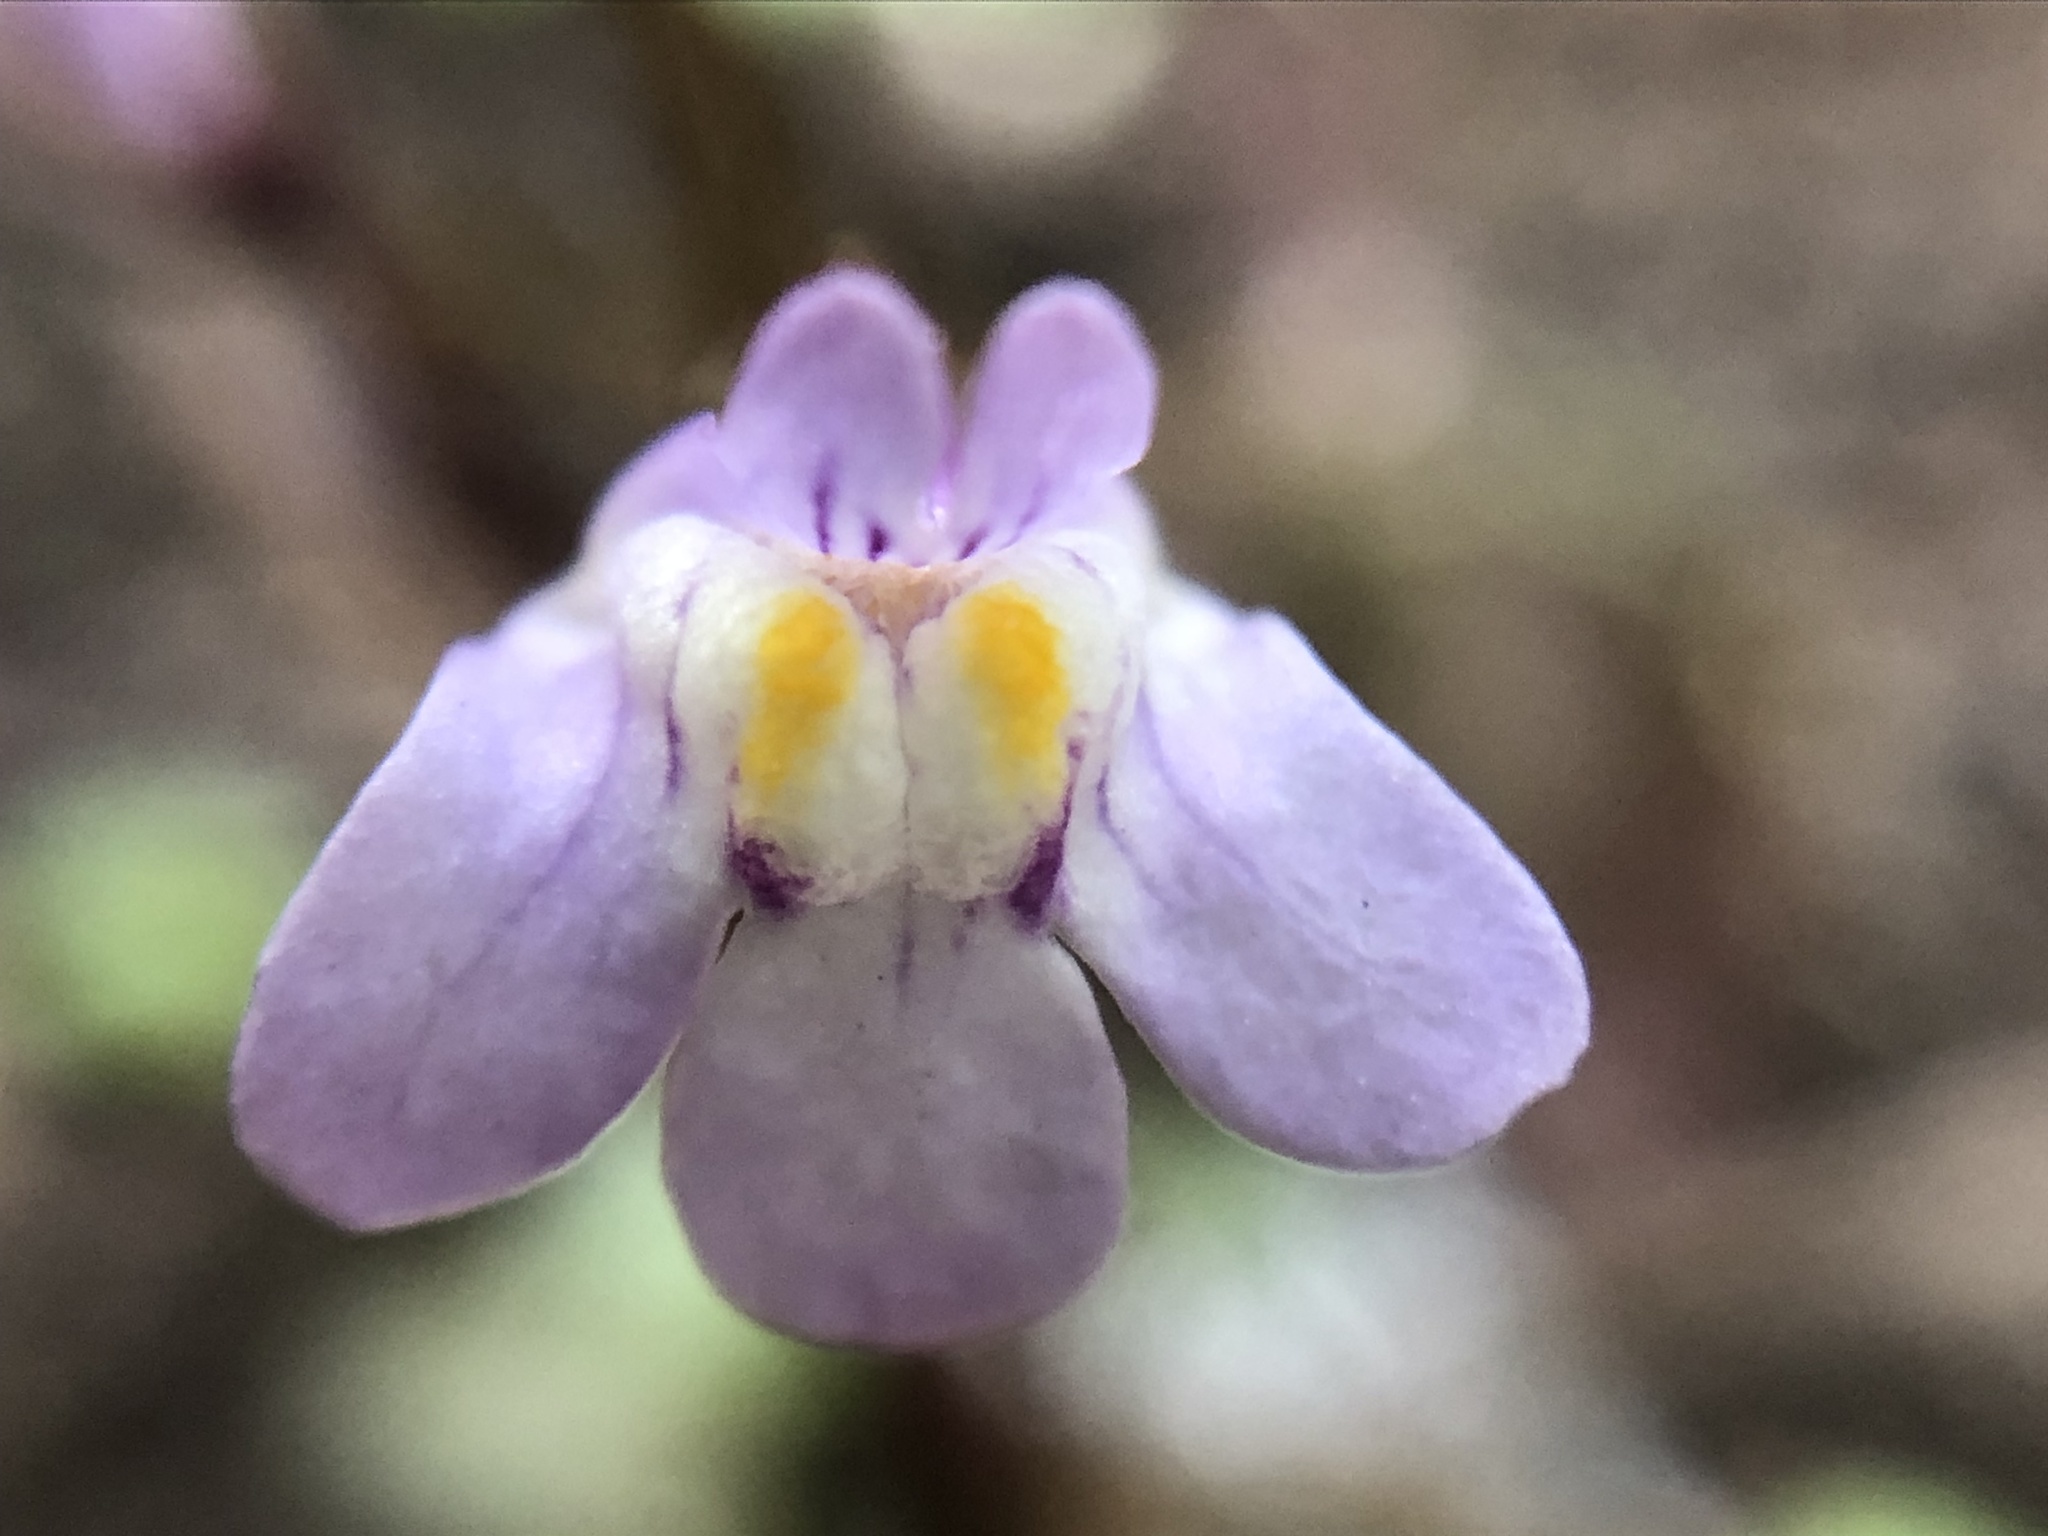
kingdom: Plantae
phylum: Tracheophyta
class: Magnoliopsida
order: Lamiales
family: Plantaginaceae
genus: Cymbalaria
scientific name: Cymbalaria muralis
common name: Ivy-leaved toadflax
